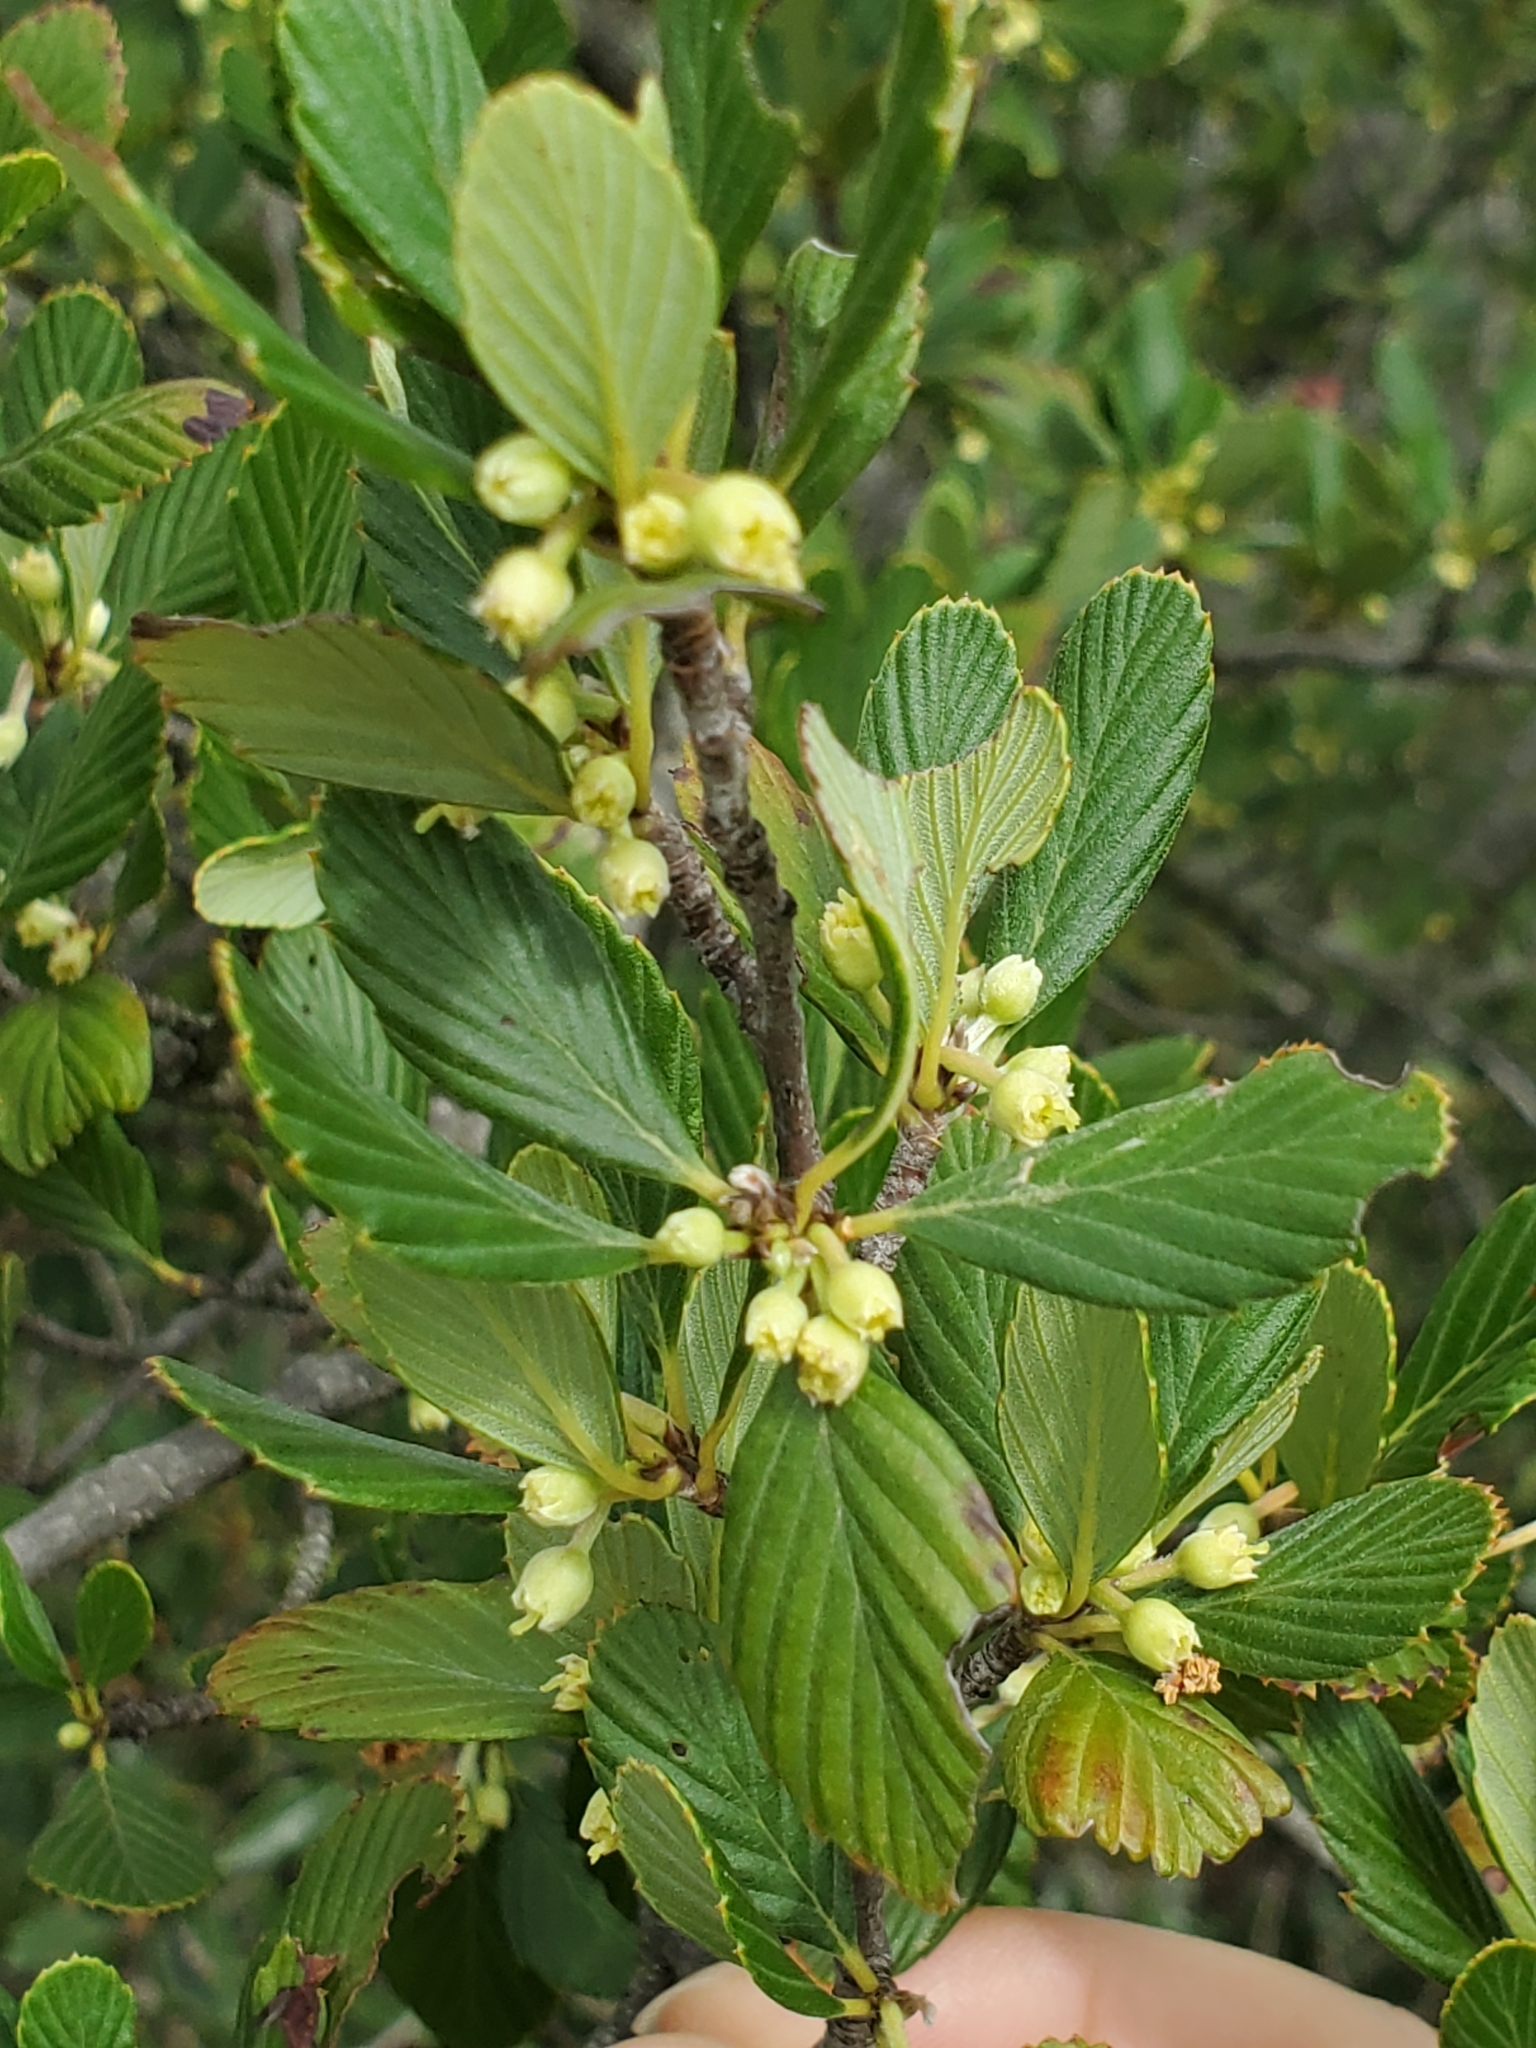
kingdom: Plantae
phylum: Tracheophyta
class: Magnoliopsida
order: Rosales
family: Rosaceae
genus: Cercocarpus
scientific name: Cercocarpus montanus
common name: Alder-leaf cercocarpus
